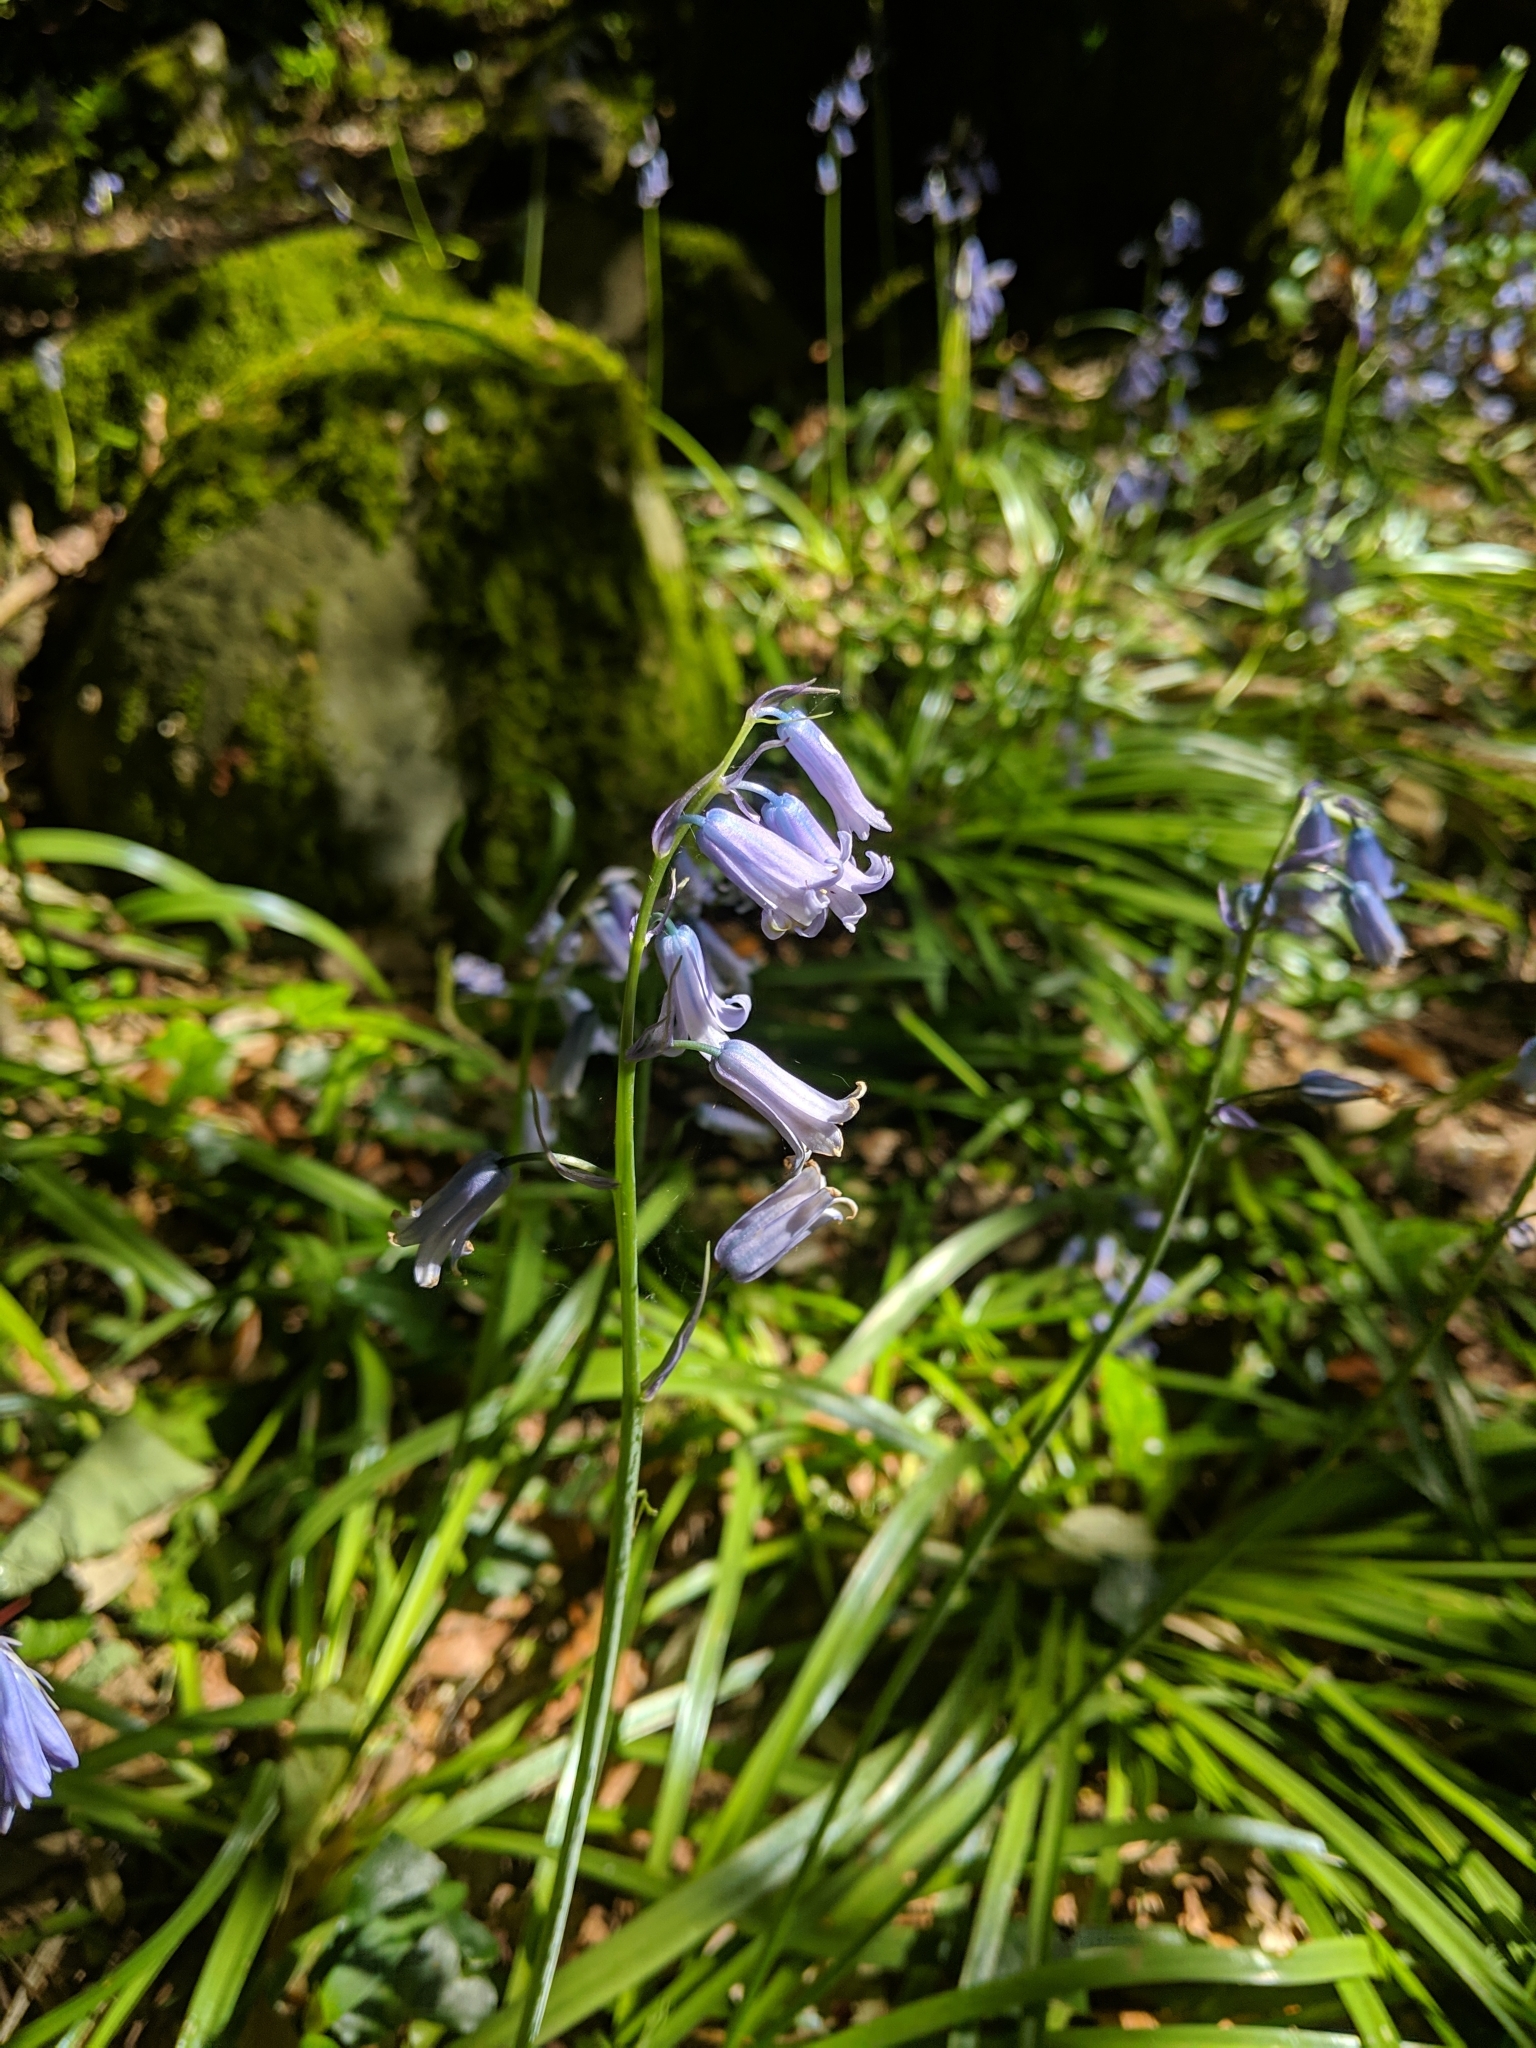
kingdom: Fungi
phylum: Basidiomycota
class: Pucciniomycetes
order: Pucciniales
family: Pucciniaceae
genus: Uromyces
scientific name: Uromyces hyacinthi
